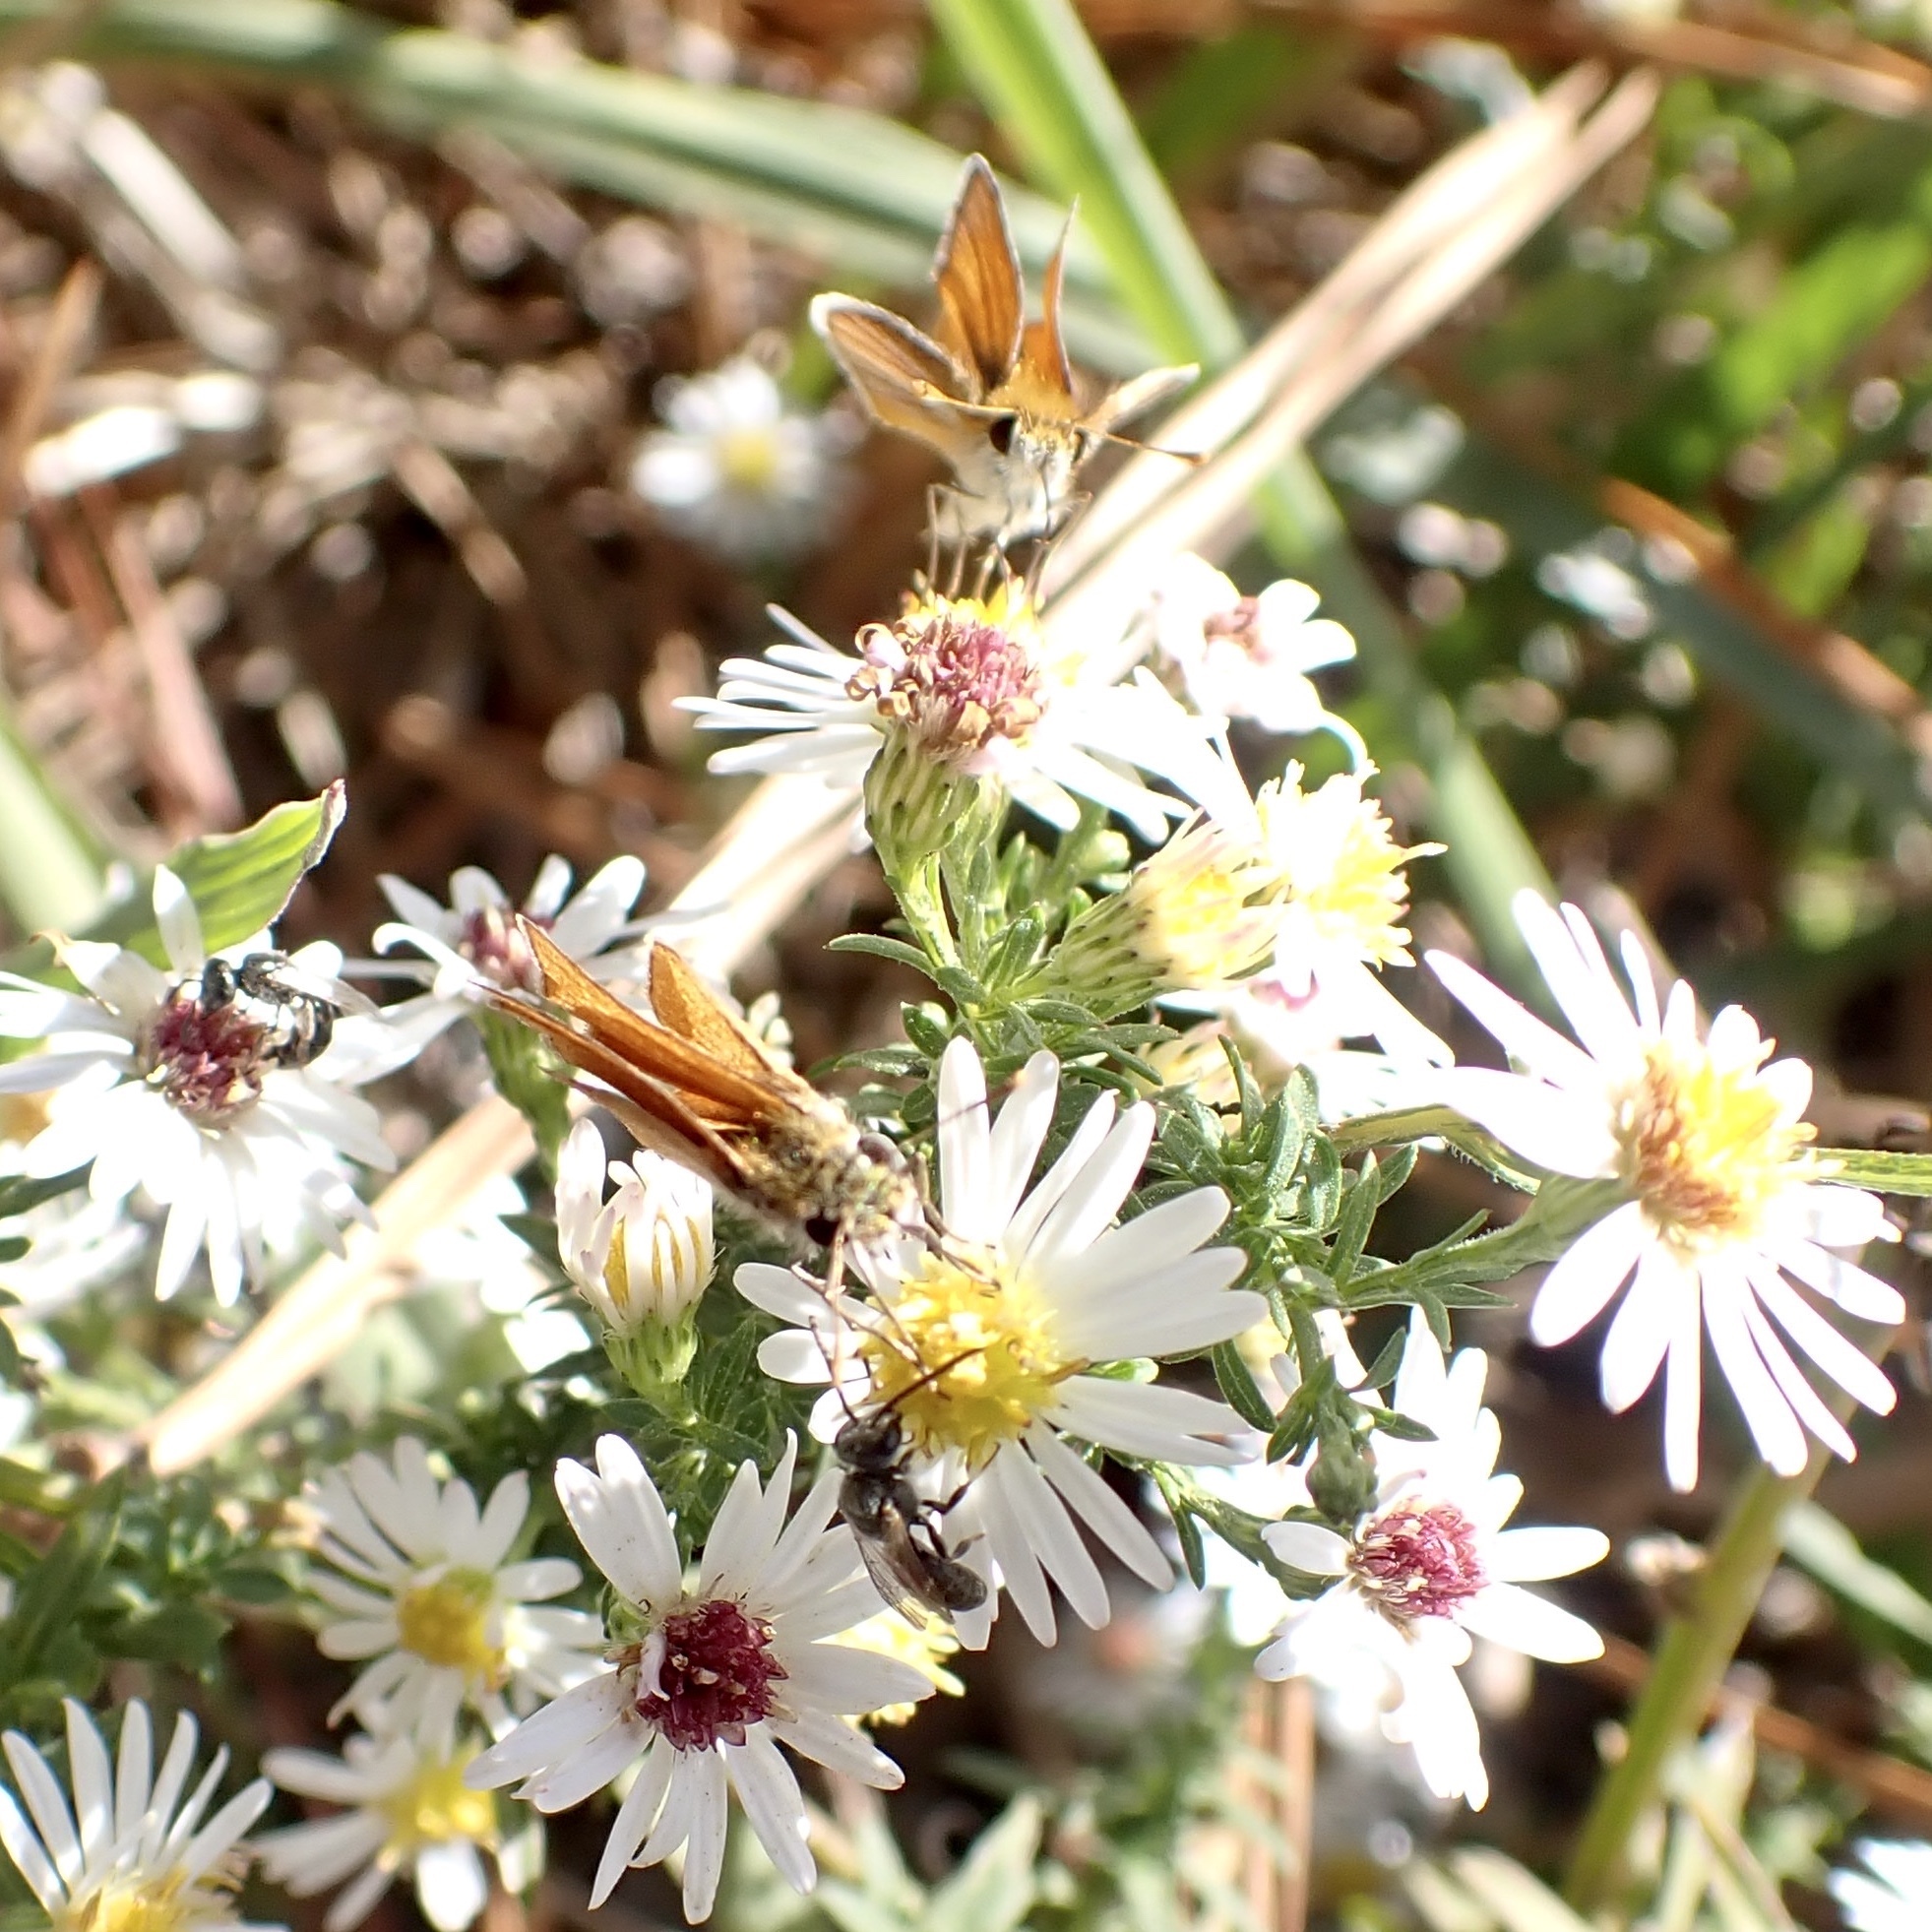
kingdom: Animalia
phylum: Arthropoda
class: Insecta
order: Lepidoptera
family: Hesperiidae
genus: Copaeodes
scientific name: Copaeodes minima
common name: Southern skipperling
